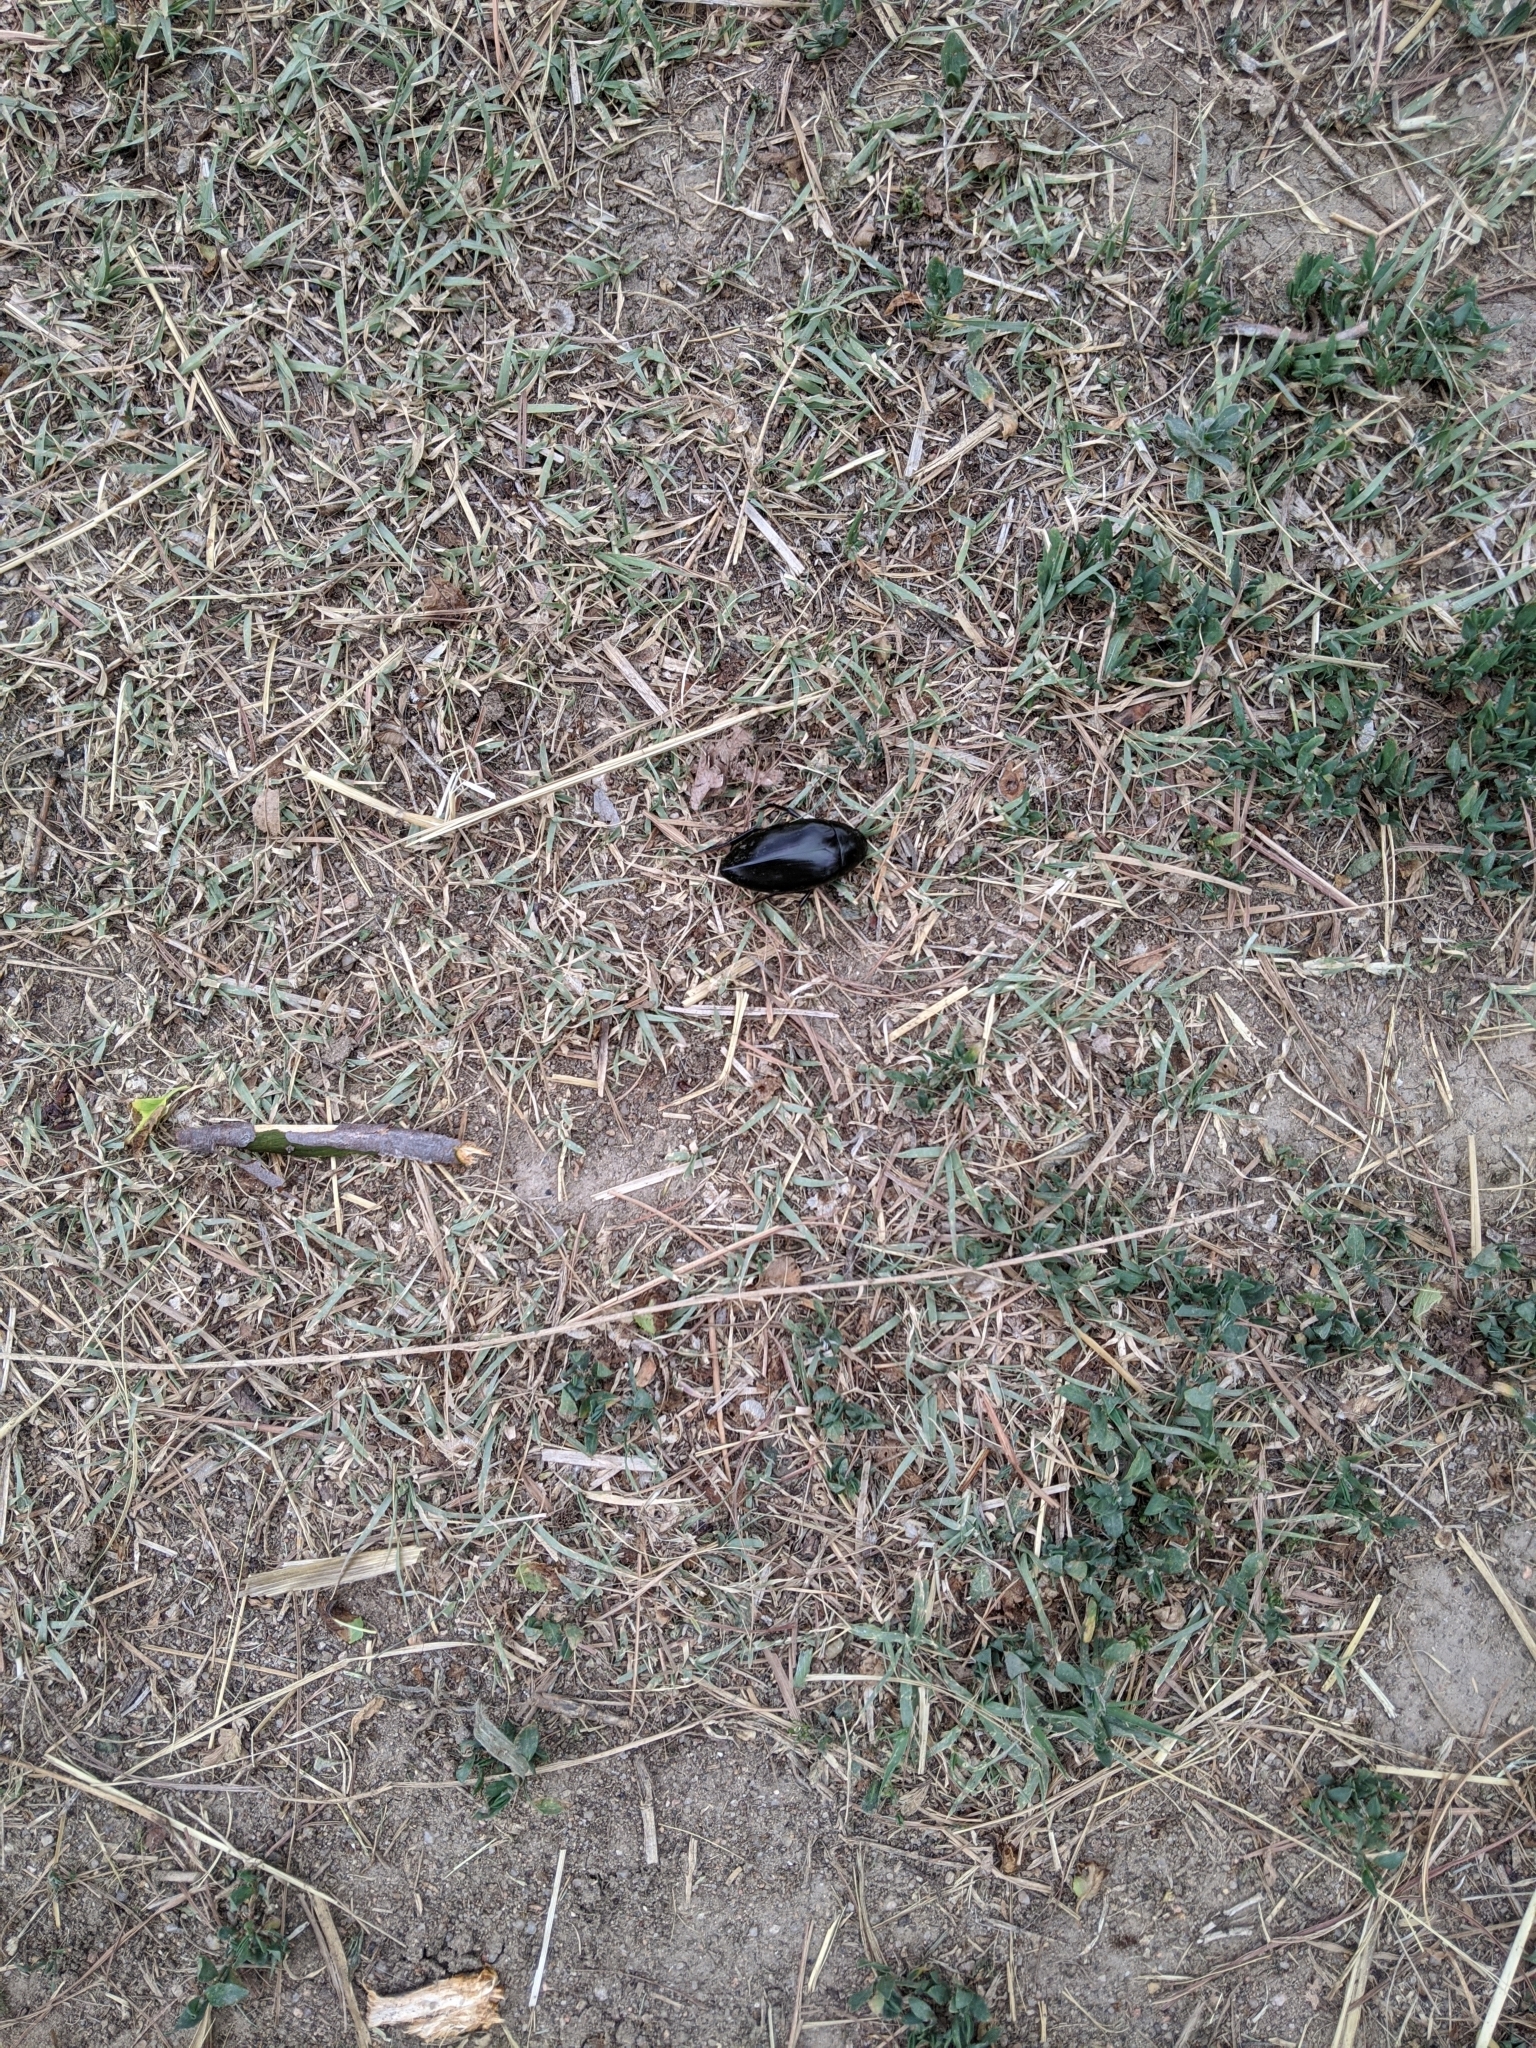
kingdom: Animalia
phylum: Arthropoda
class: Insecta
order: Coleoptera
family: Hydrophilidae
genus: Hydrophilus
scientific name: Hydrophilus triangularis
